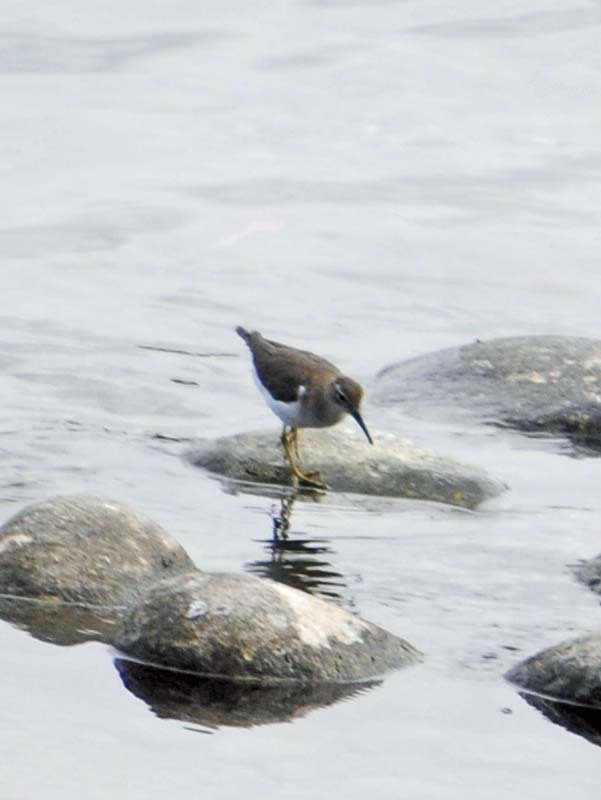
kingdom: Animalia
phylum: Chordata
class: Aves
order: Charadriiformes
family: Scolopacidae
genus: Actitis
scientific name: Actitis macularius
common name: Spotted sandpiper
